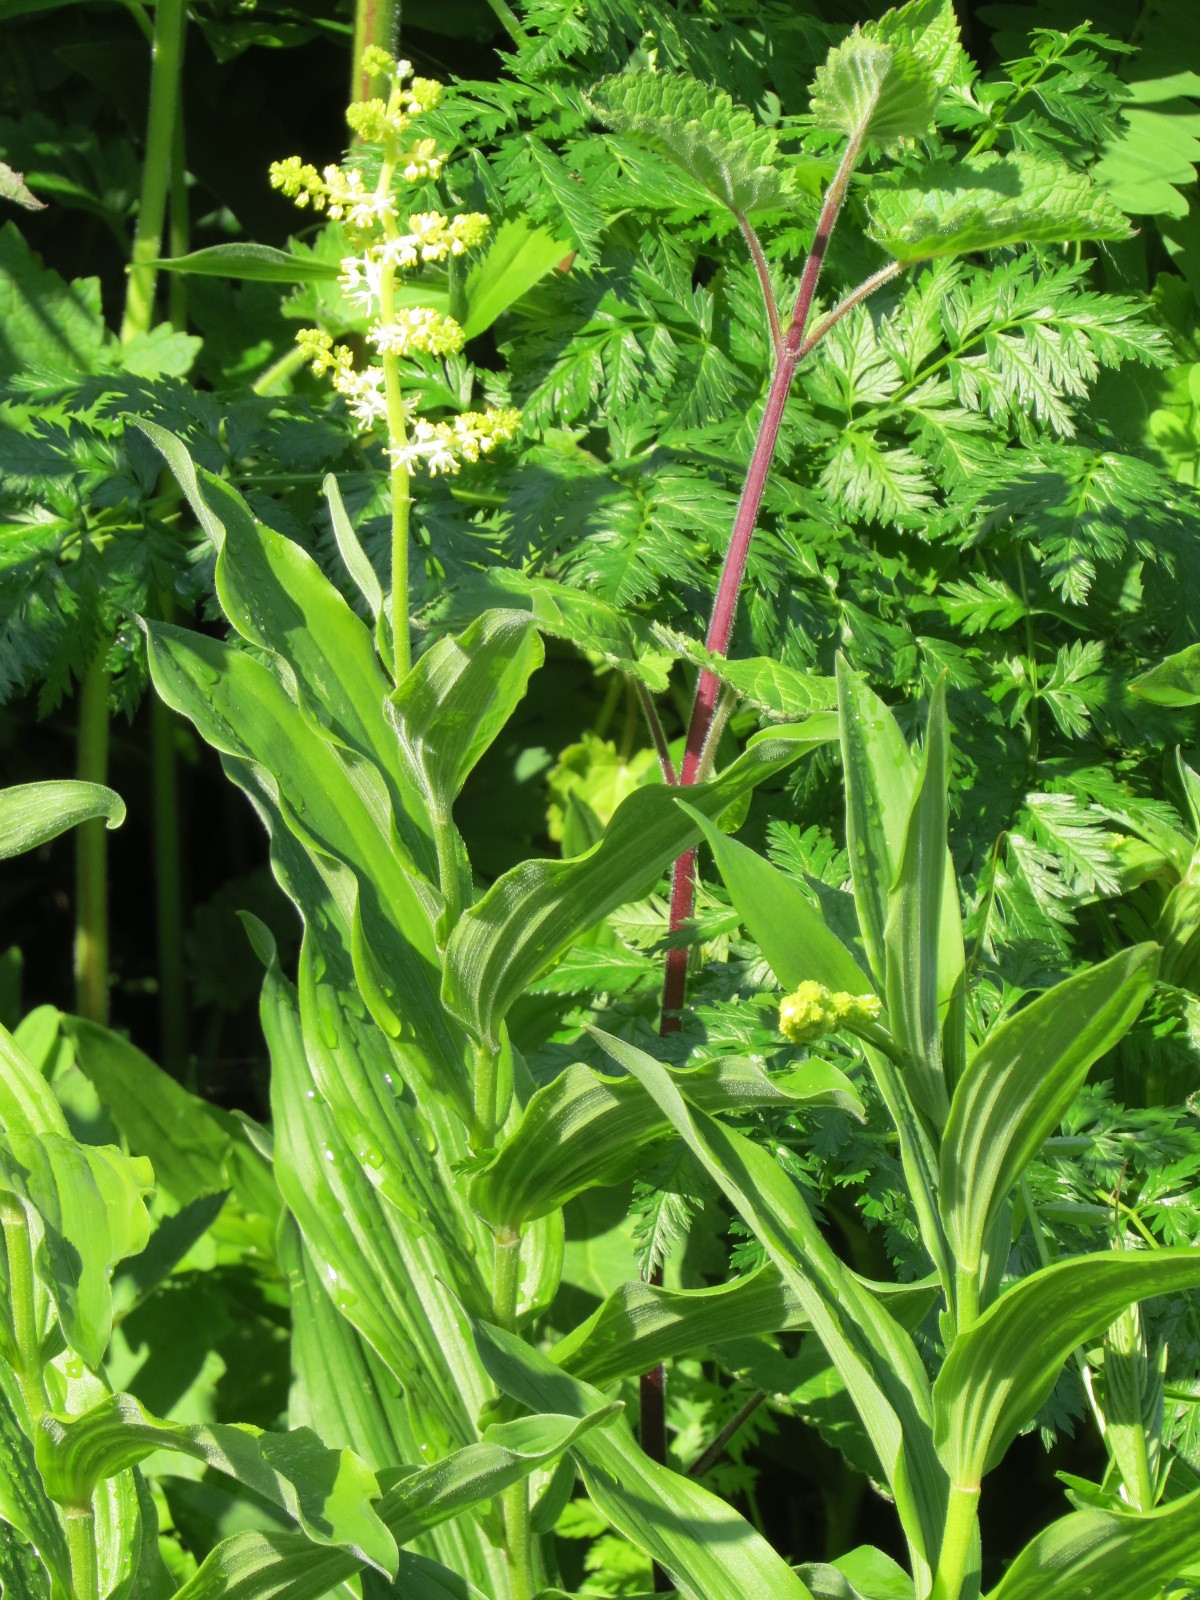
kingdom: Plantae
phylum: Tracheophyta
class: Liliopsida
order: Asparagales
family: Asparagaceae
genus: Maianthemum
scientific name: Maianthemum racemosum
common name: False spikenard
